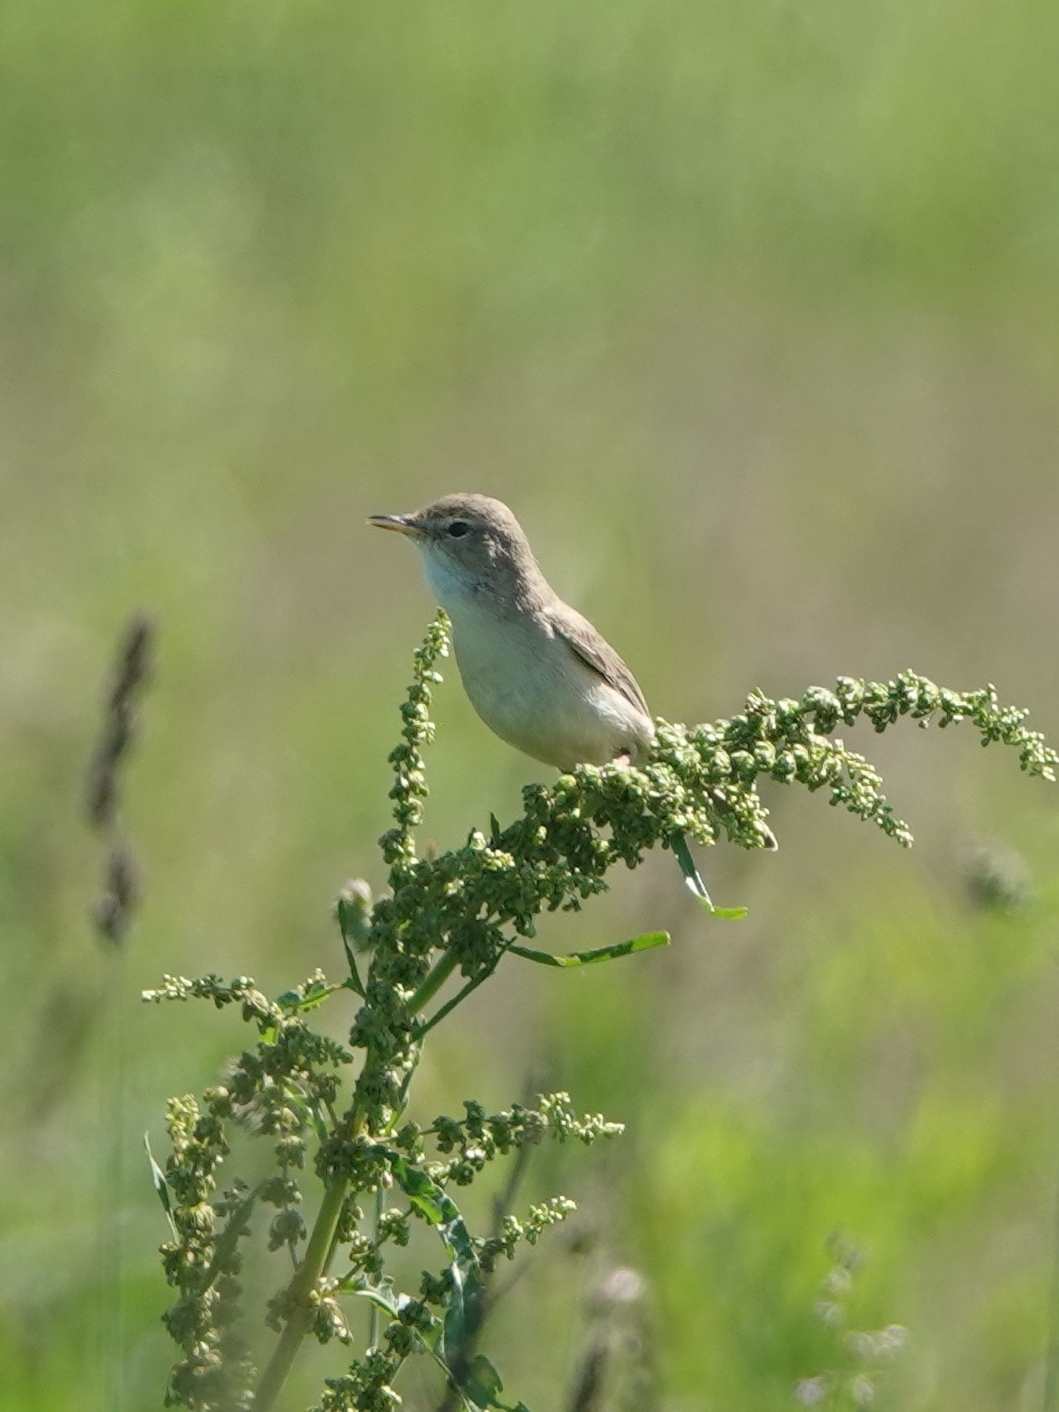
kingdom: Animalia
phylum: Chordata
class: Aves
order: Passeriformes
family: Acrocephalidae
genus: Iduna
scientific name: Iduna caligata
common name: Booted warbler
